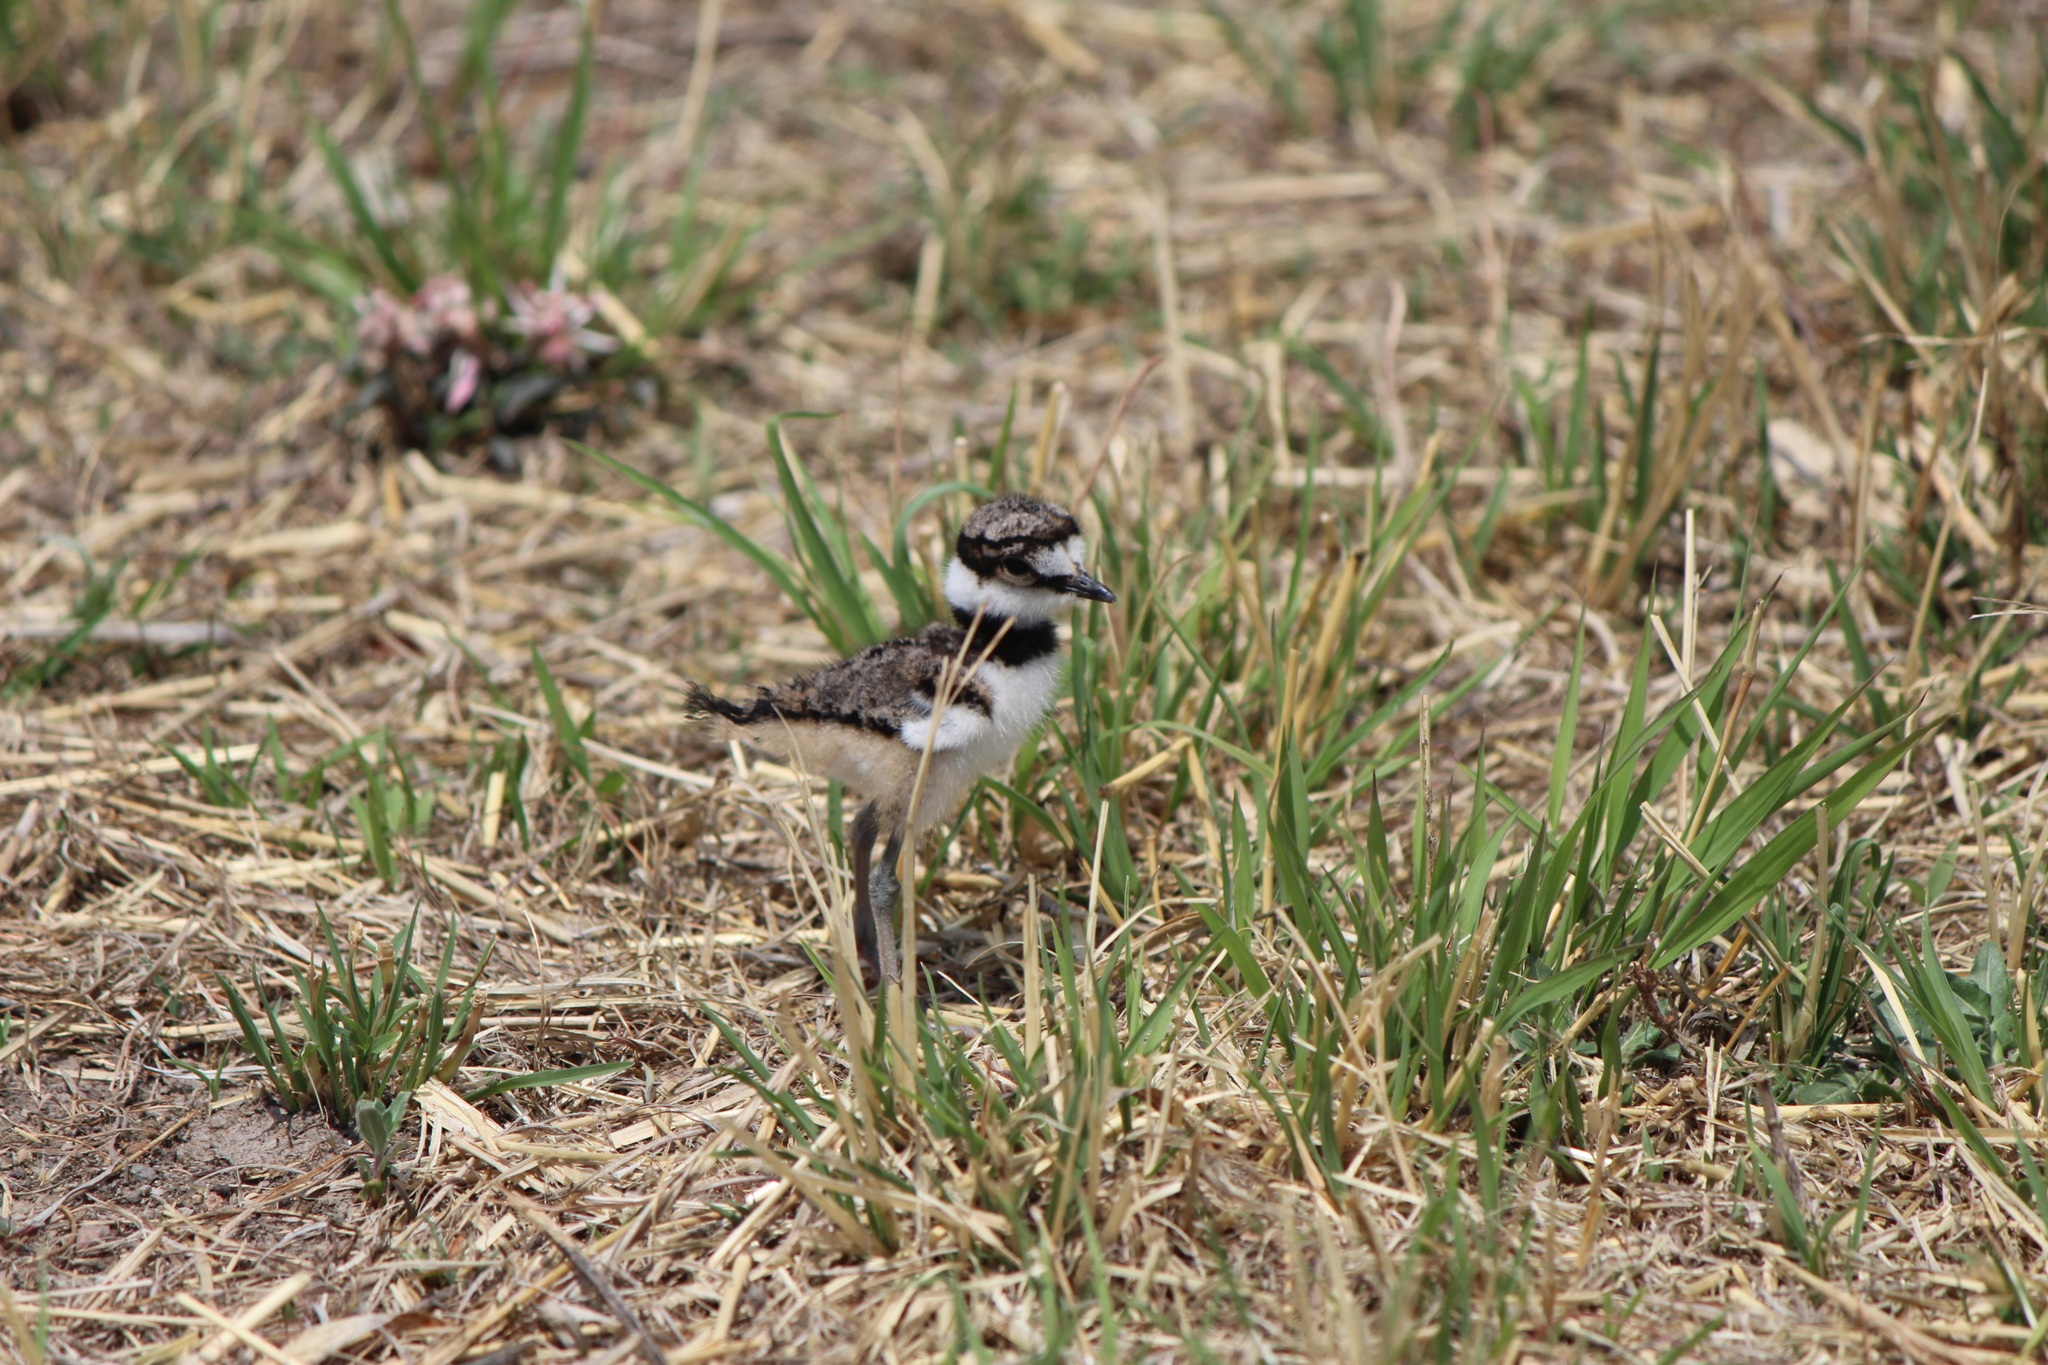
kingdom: Animalia
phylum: Chordata
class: Aves
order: Charadriiformes
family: Charadriidae
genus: Charadrius
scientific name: Charadrius vociferus
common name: Killdeer
